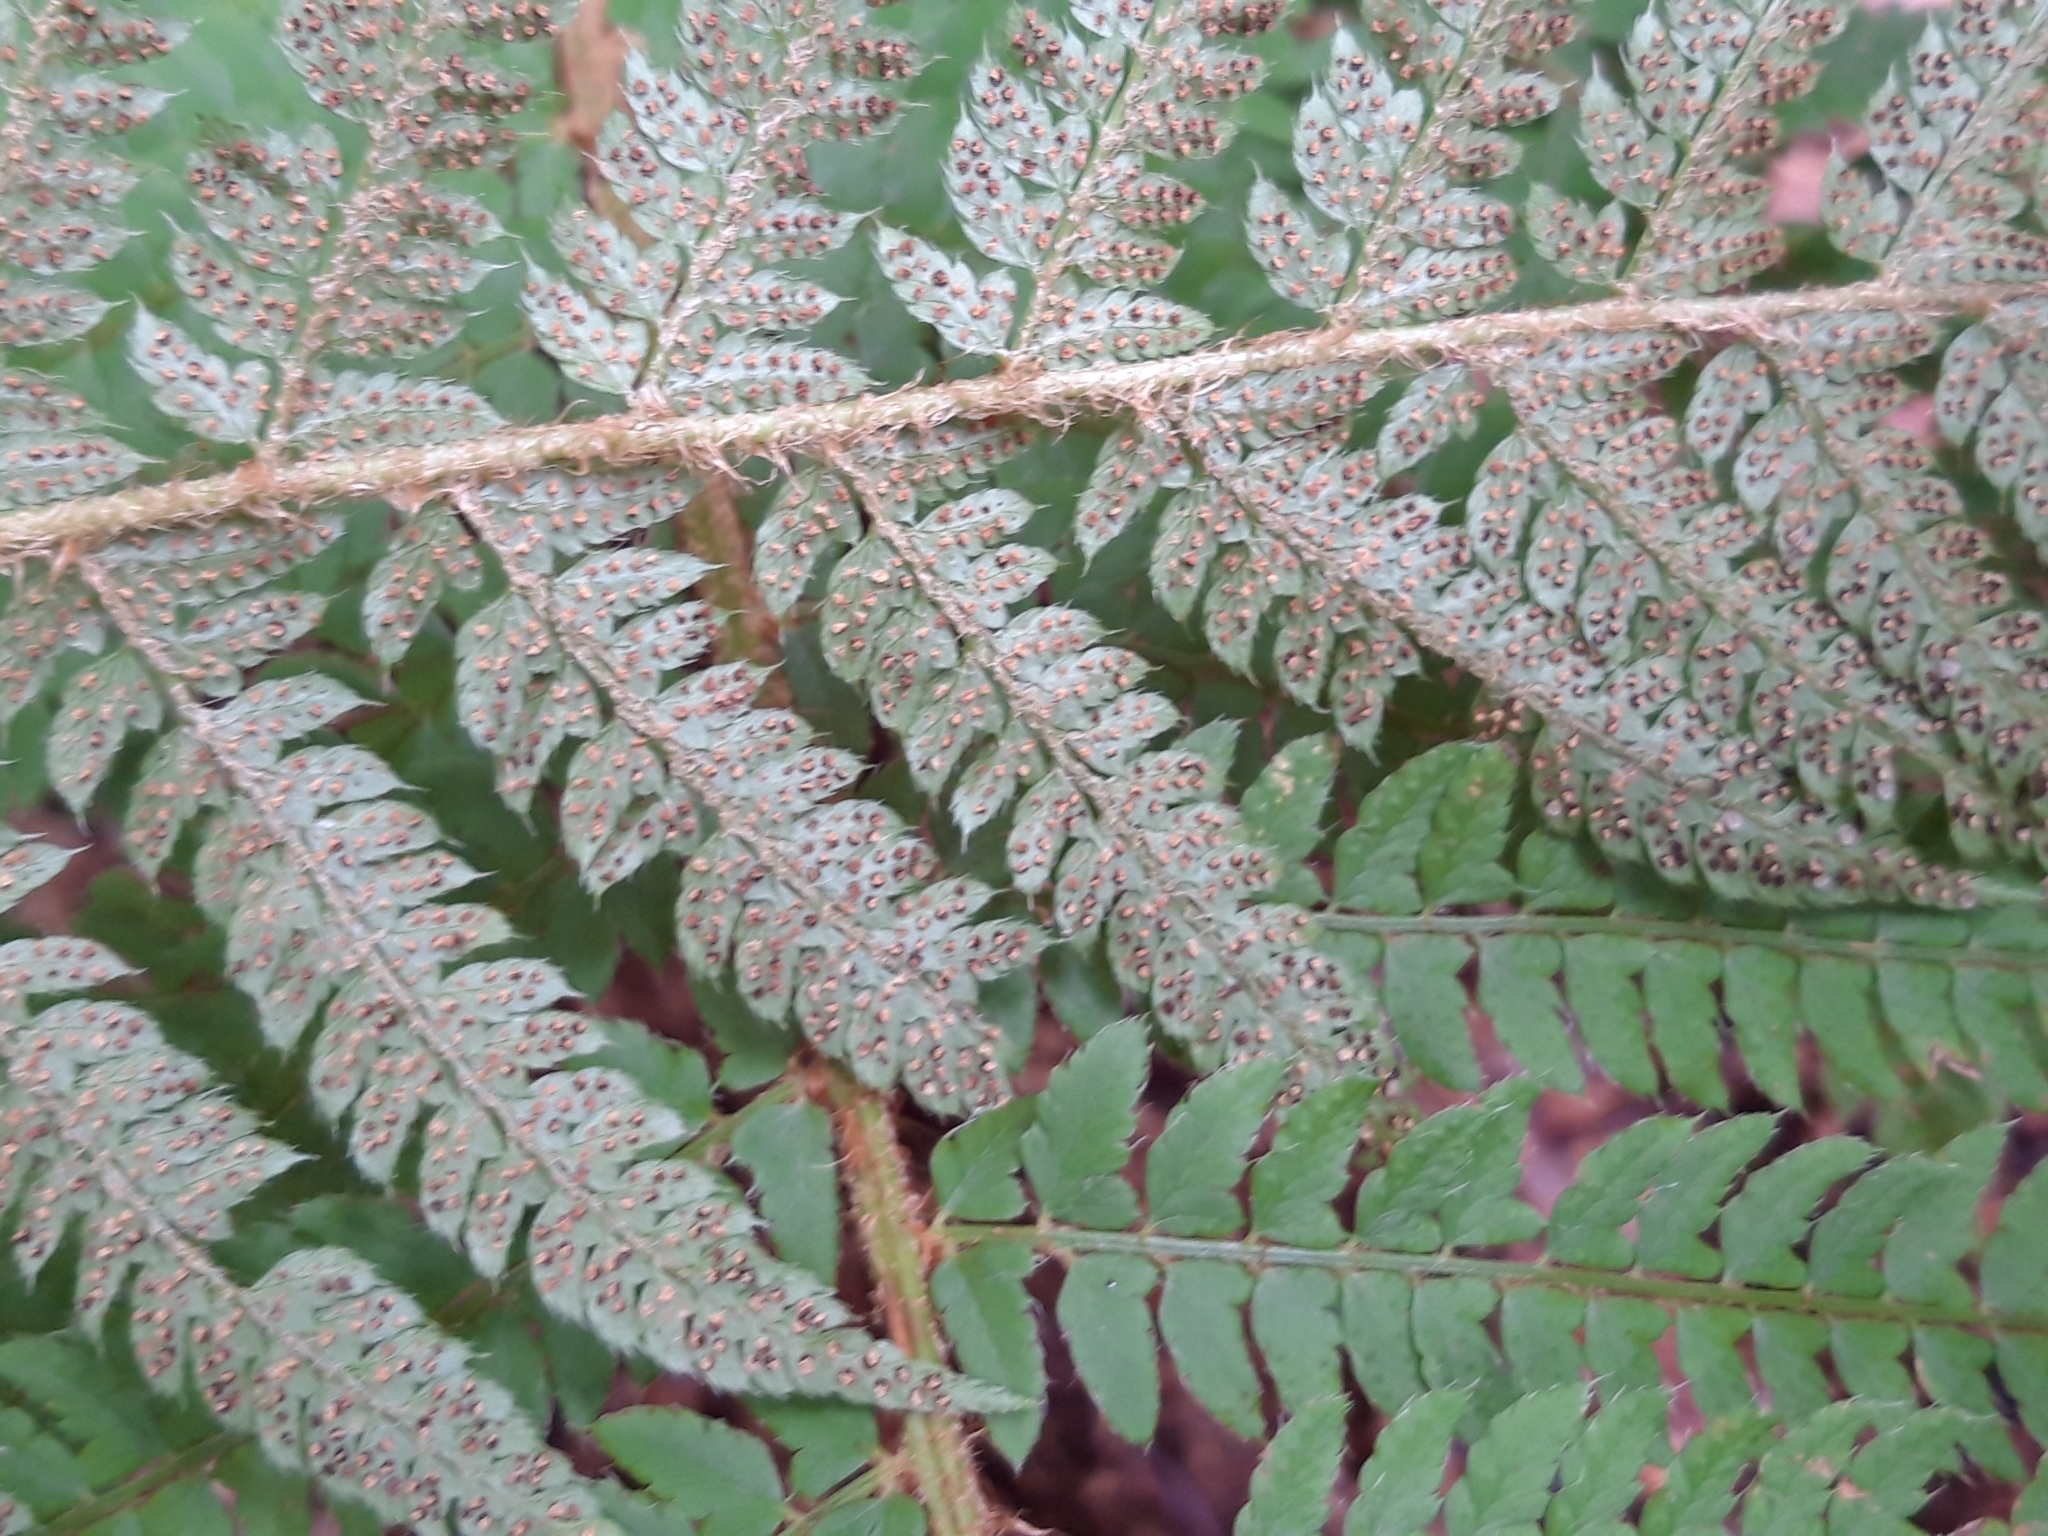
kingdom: Plantae
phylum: Tracheophyta
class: Polypodiopsida
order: Polypodiales
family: Dryopteridaceae
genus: Polystichum
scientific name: Polystichum setiferum
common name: Soft shield-fern
